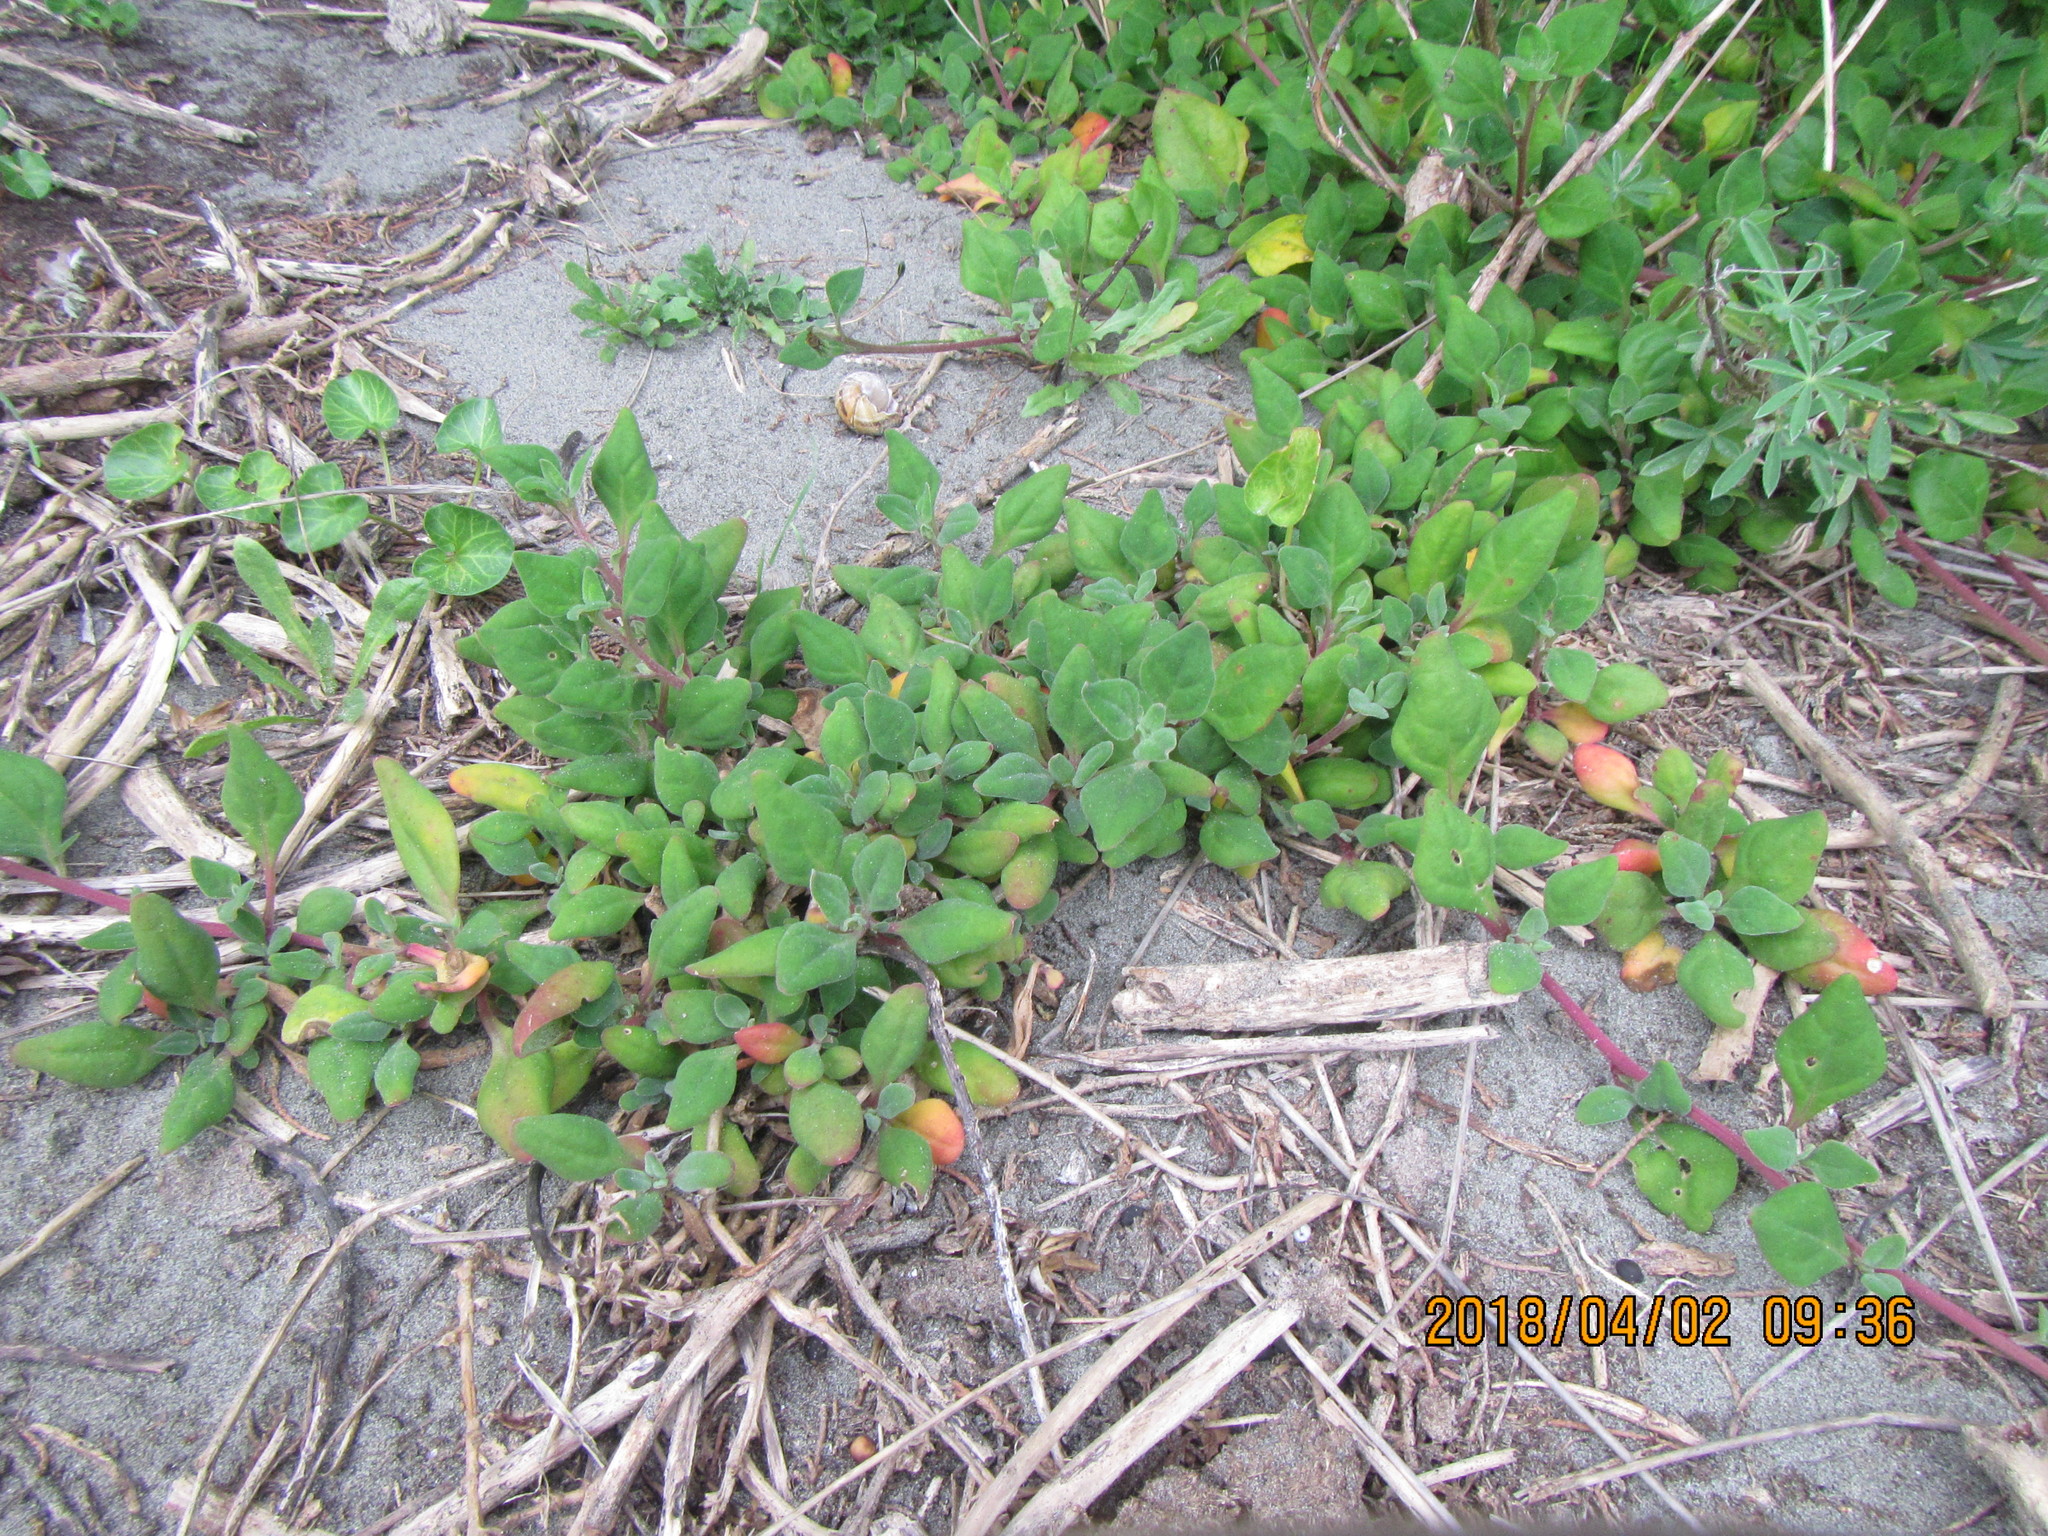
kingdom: Plantae
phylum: Tracheophyta
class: Magnoliopsida
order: Caryophyllales
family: Aizoaceae
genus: Tetragonia
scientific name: Tetragonia implexicoma
